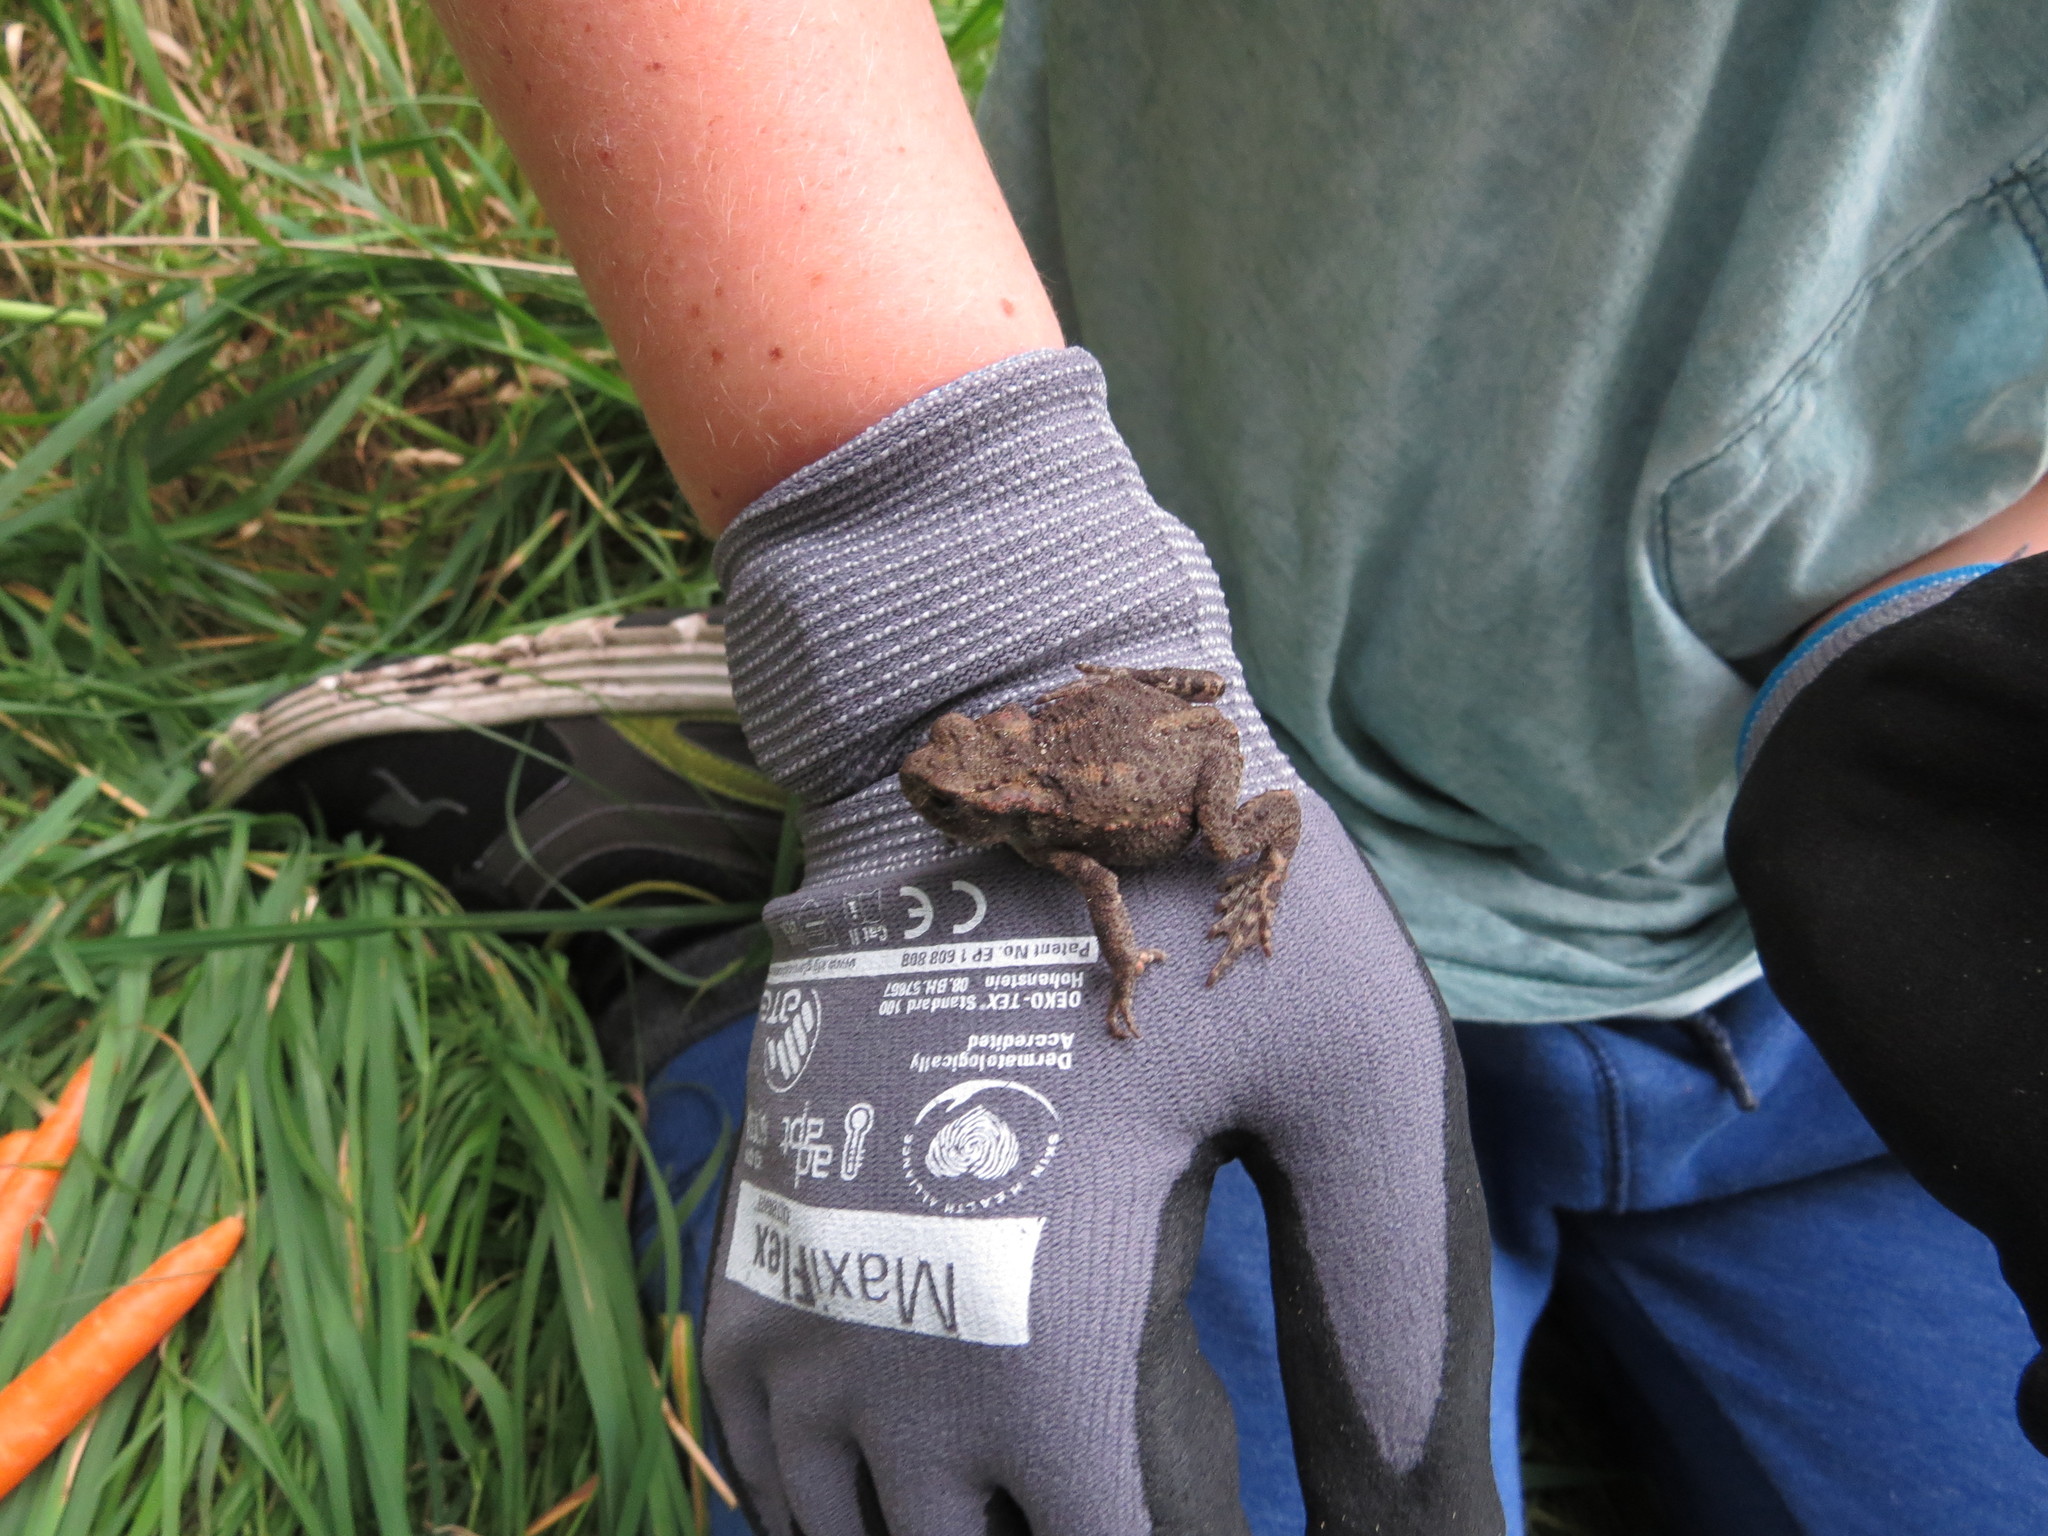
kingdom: Animalia
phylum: Chordata
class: Amphibia
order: Anura
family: Bufonidae
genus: Bufo
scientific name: Bufo bufo
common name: Common toad
